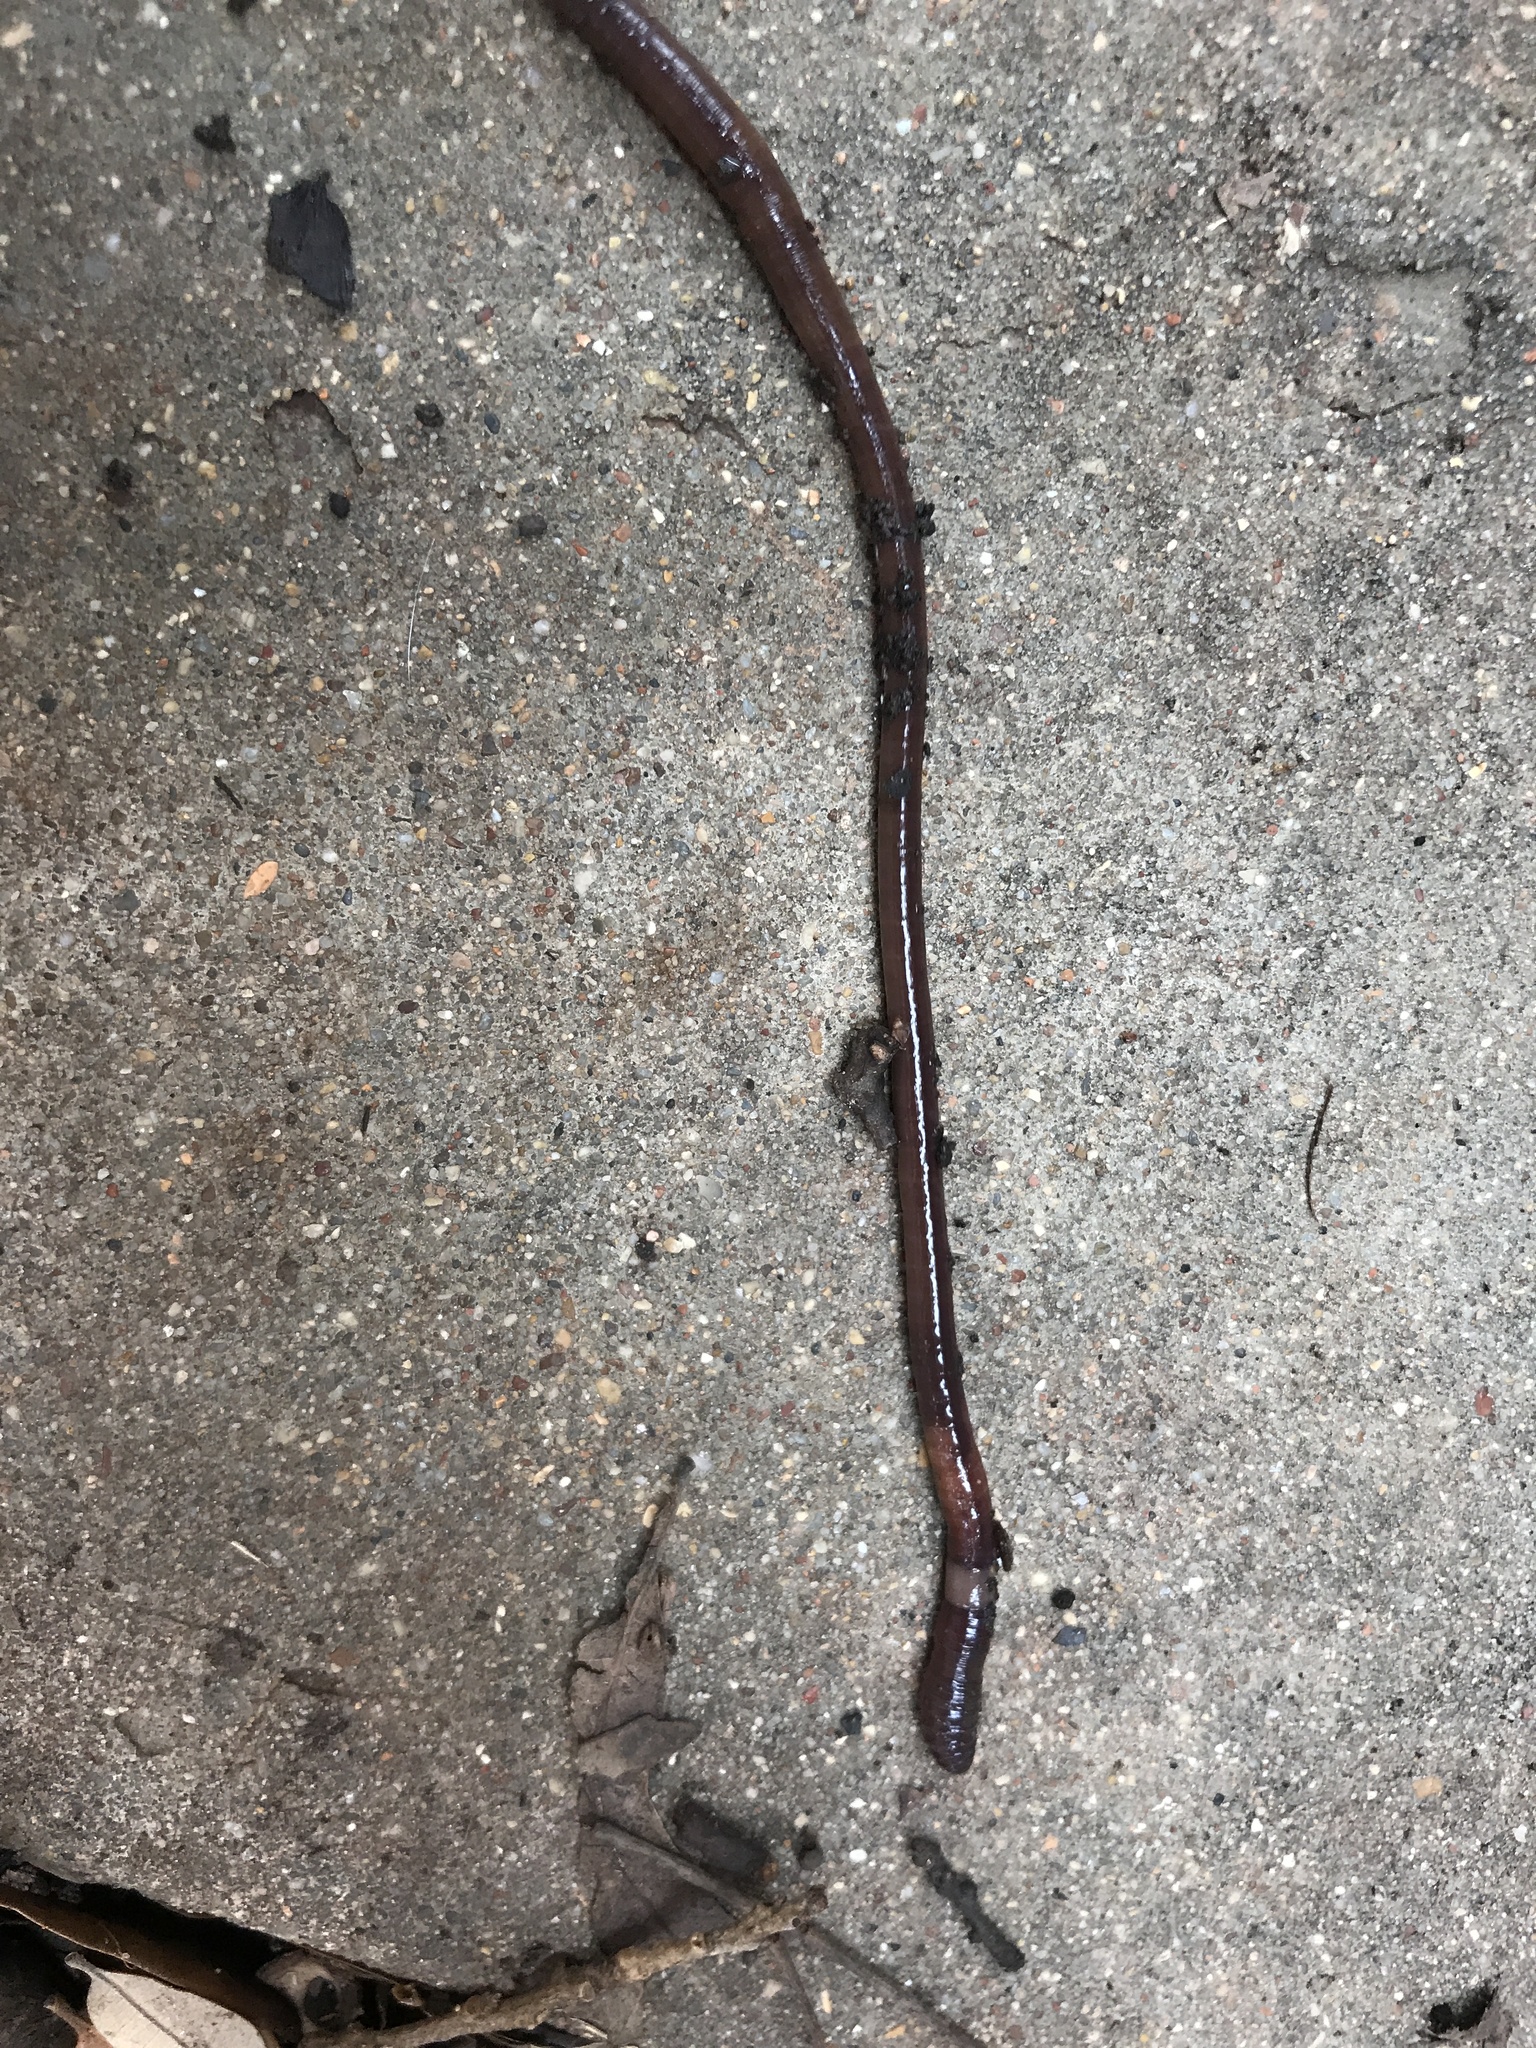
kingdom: Animalia
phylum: Annelida
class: Clitellata
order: Crassiclitellata
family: Lumbricidae
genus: Lumbricus
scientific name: Lumbricus terrestris
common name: Common earthworm
